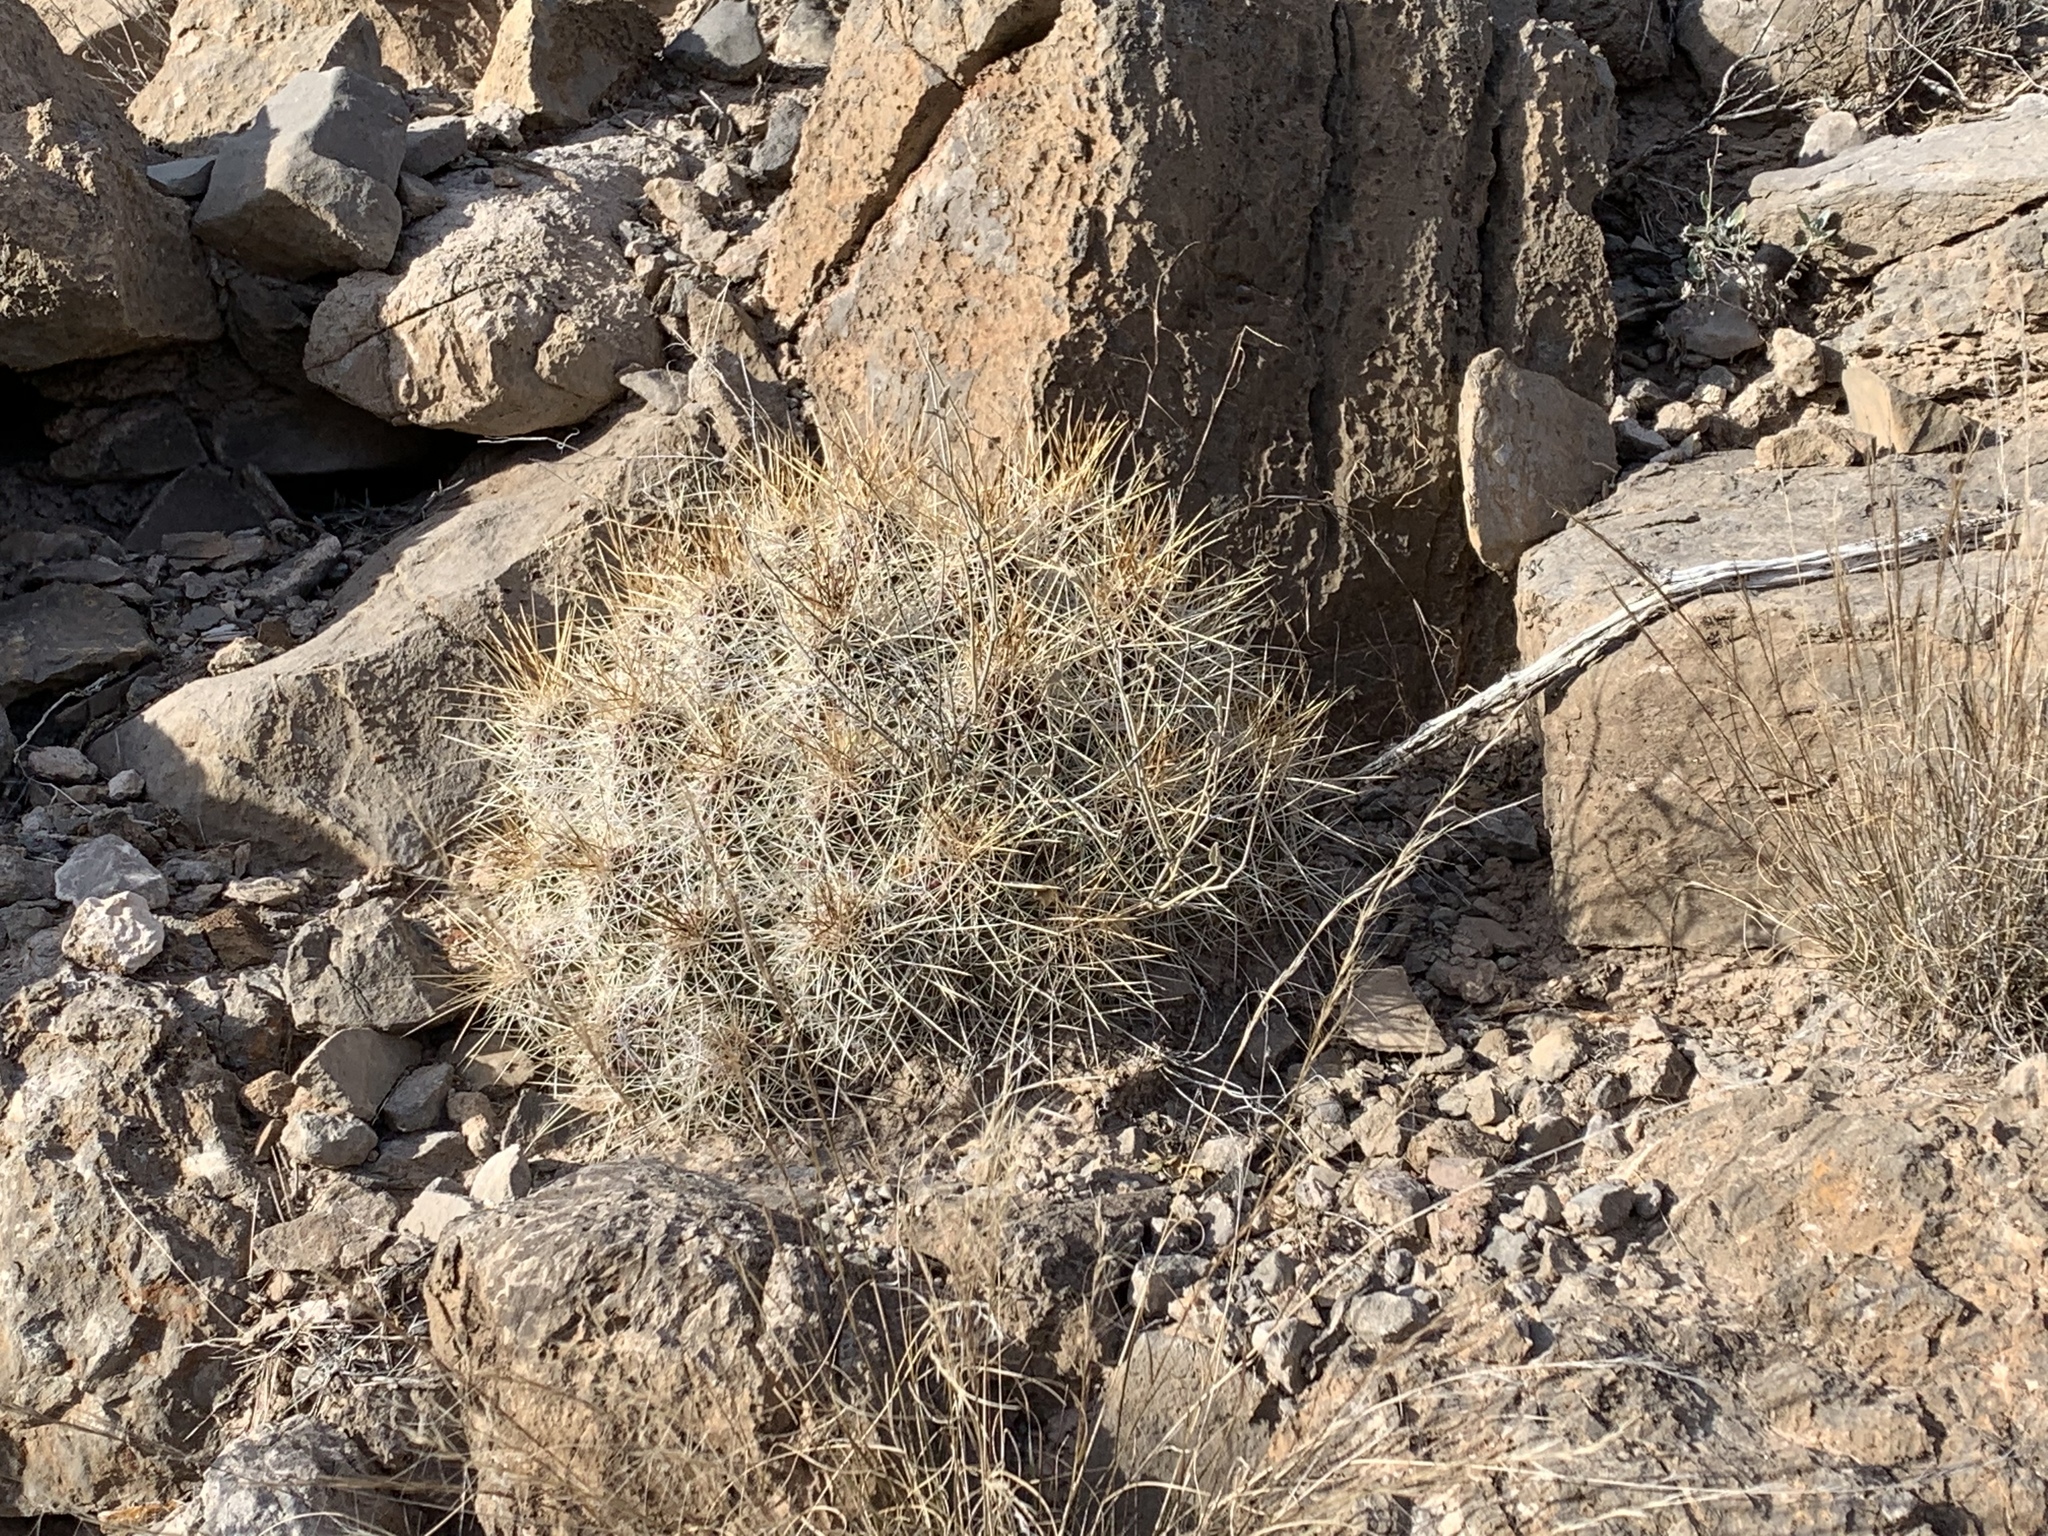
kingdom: Plantae
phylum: Tracheophyta
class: Magnoliopsida
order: Caryophyllales
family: Cactaceae
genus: Echinocereus
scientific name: Echinocereus stramineus
